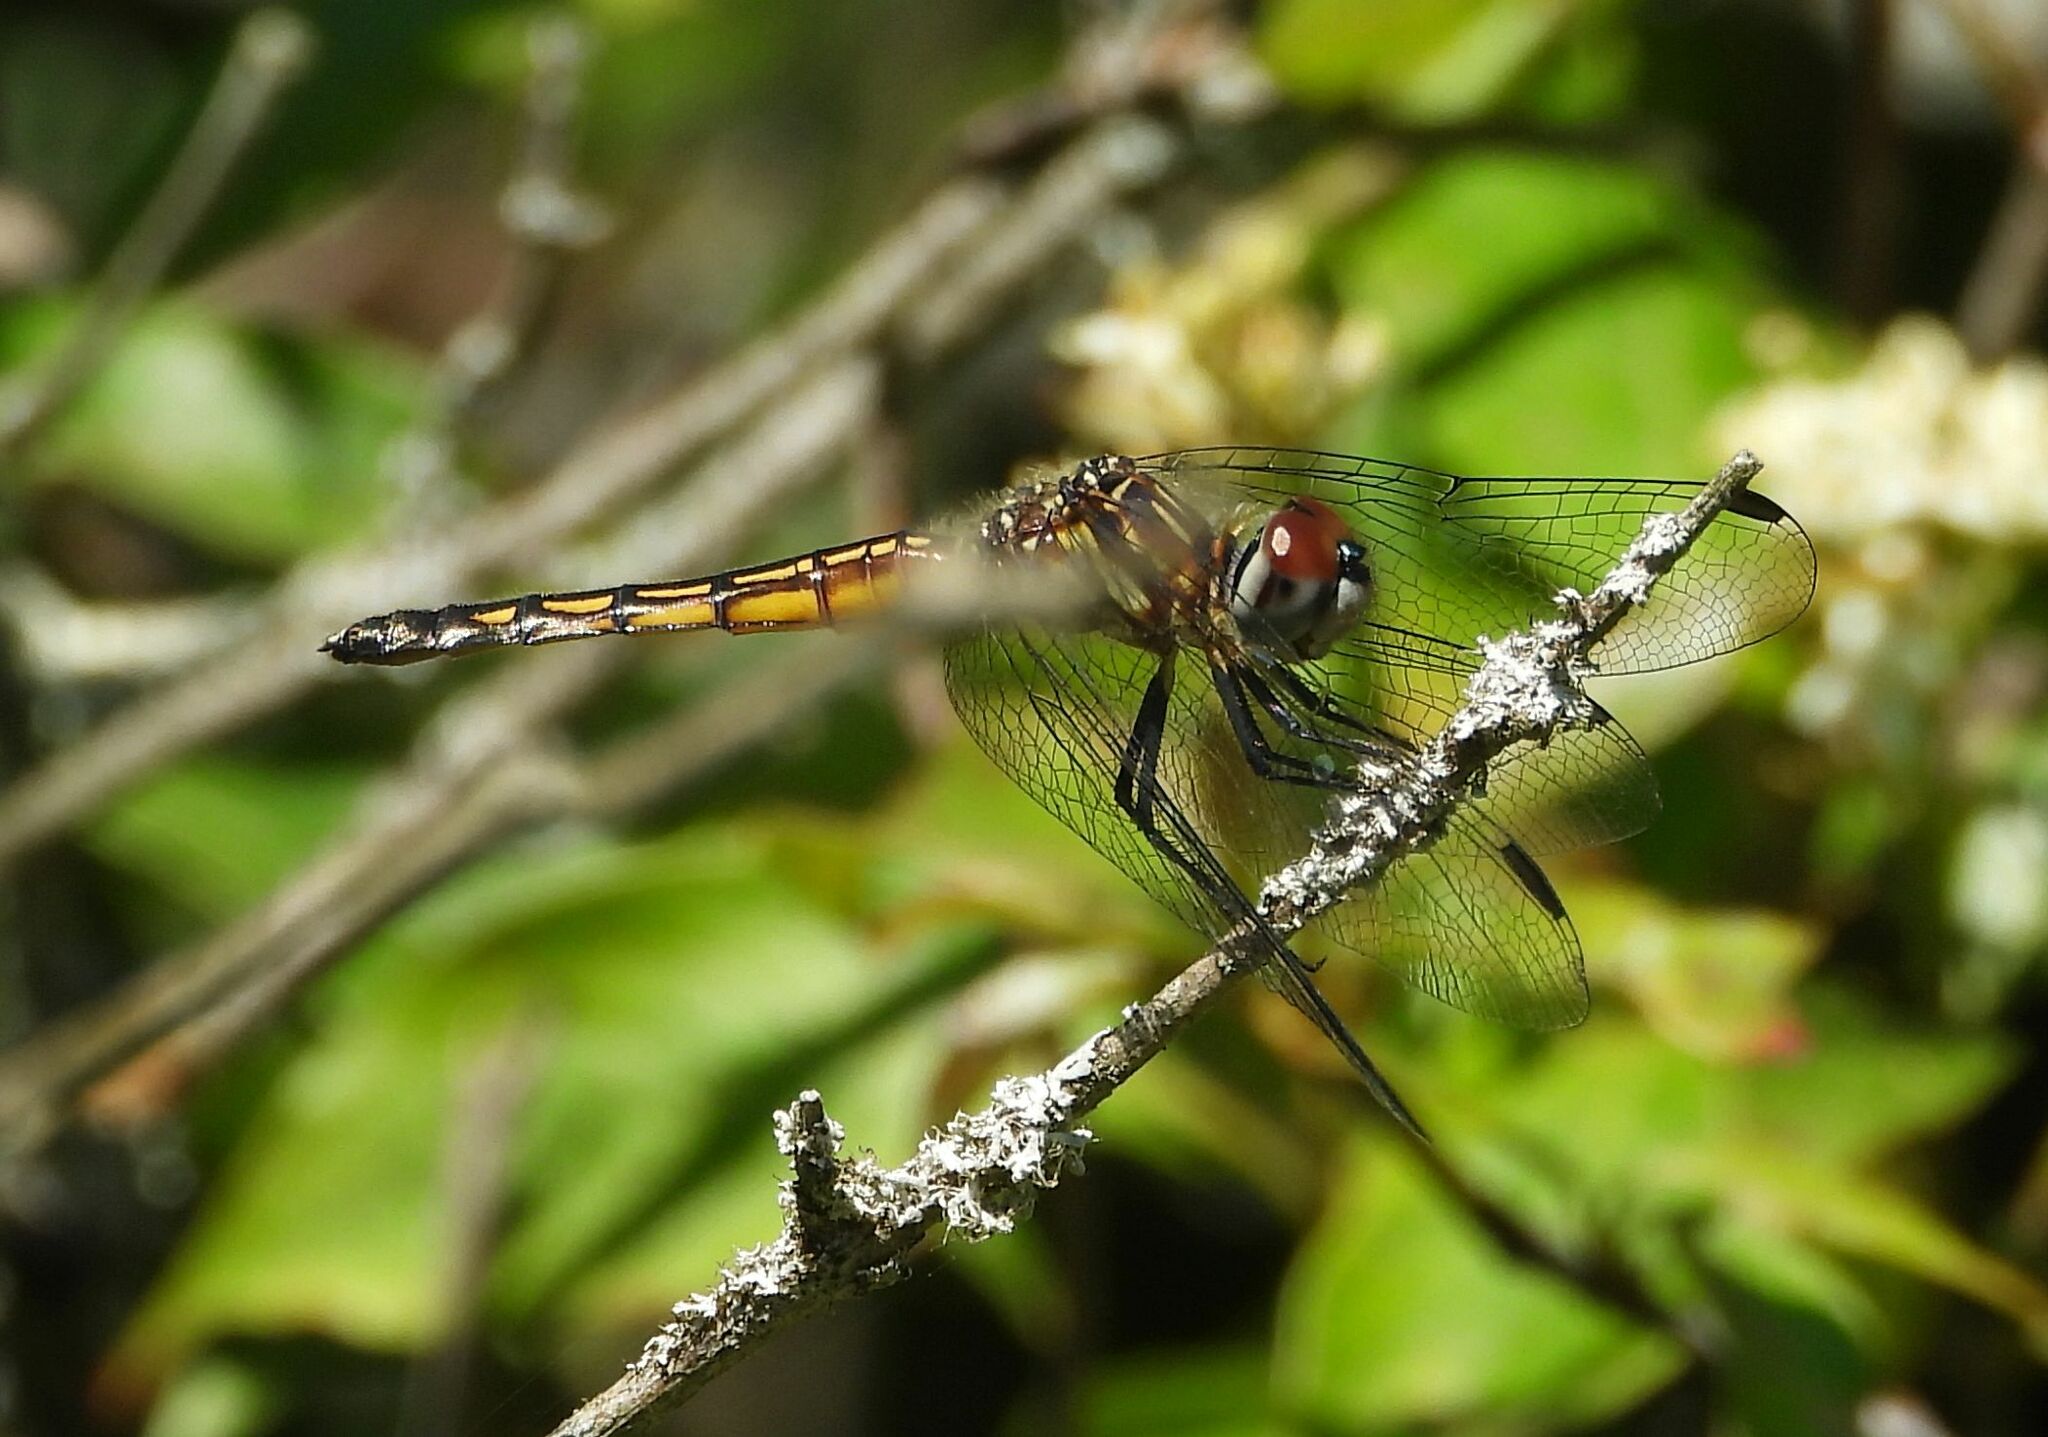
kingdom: Animalia
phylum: Arthropoda
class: Insecta
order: Odonata
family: Libellulidae
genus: Pachydiplax
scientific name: Pachydiplax longipennis
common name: Blue dasher
